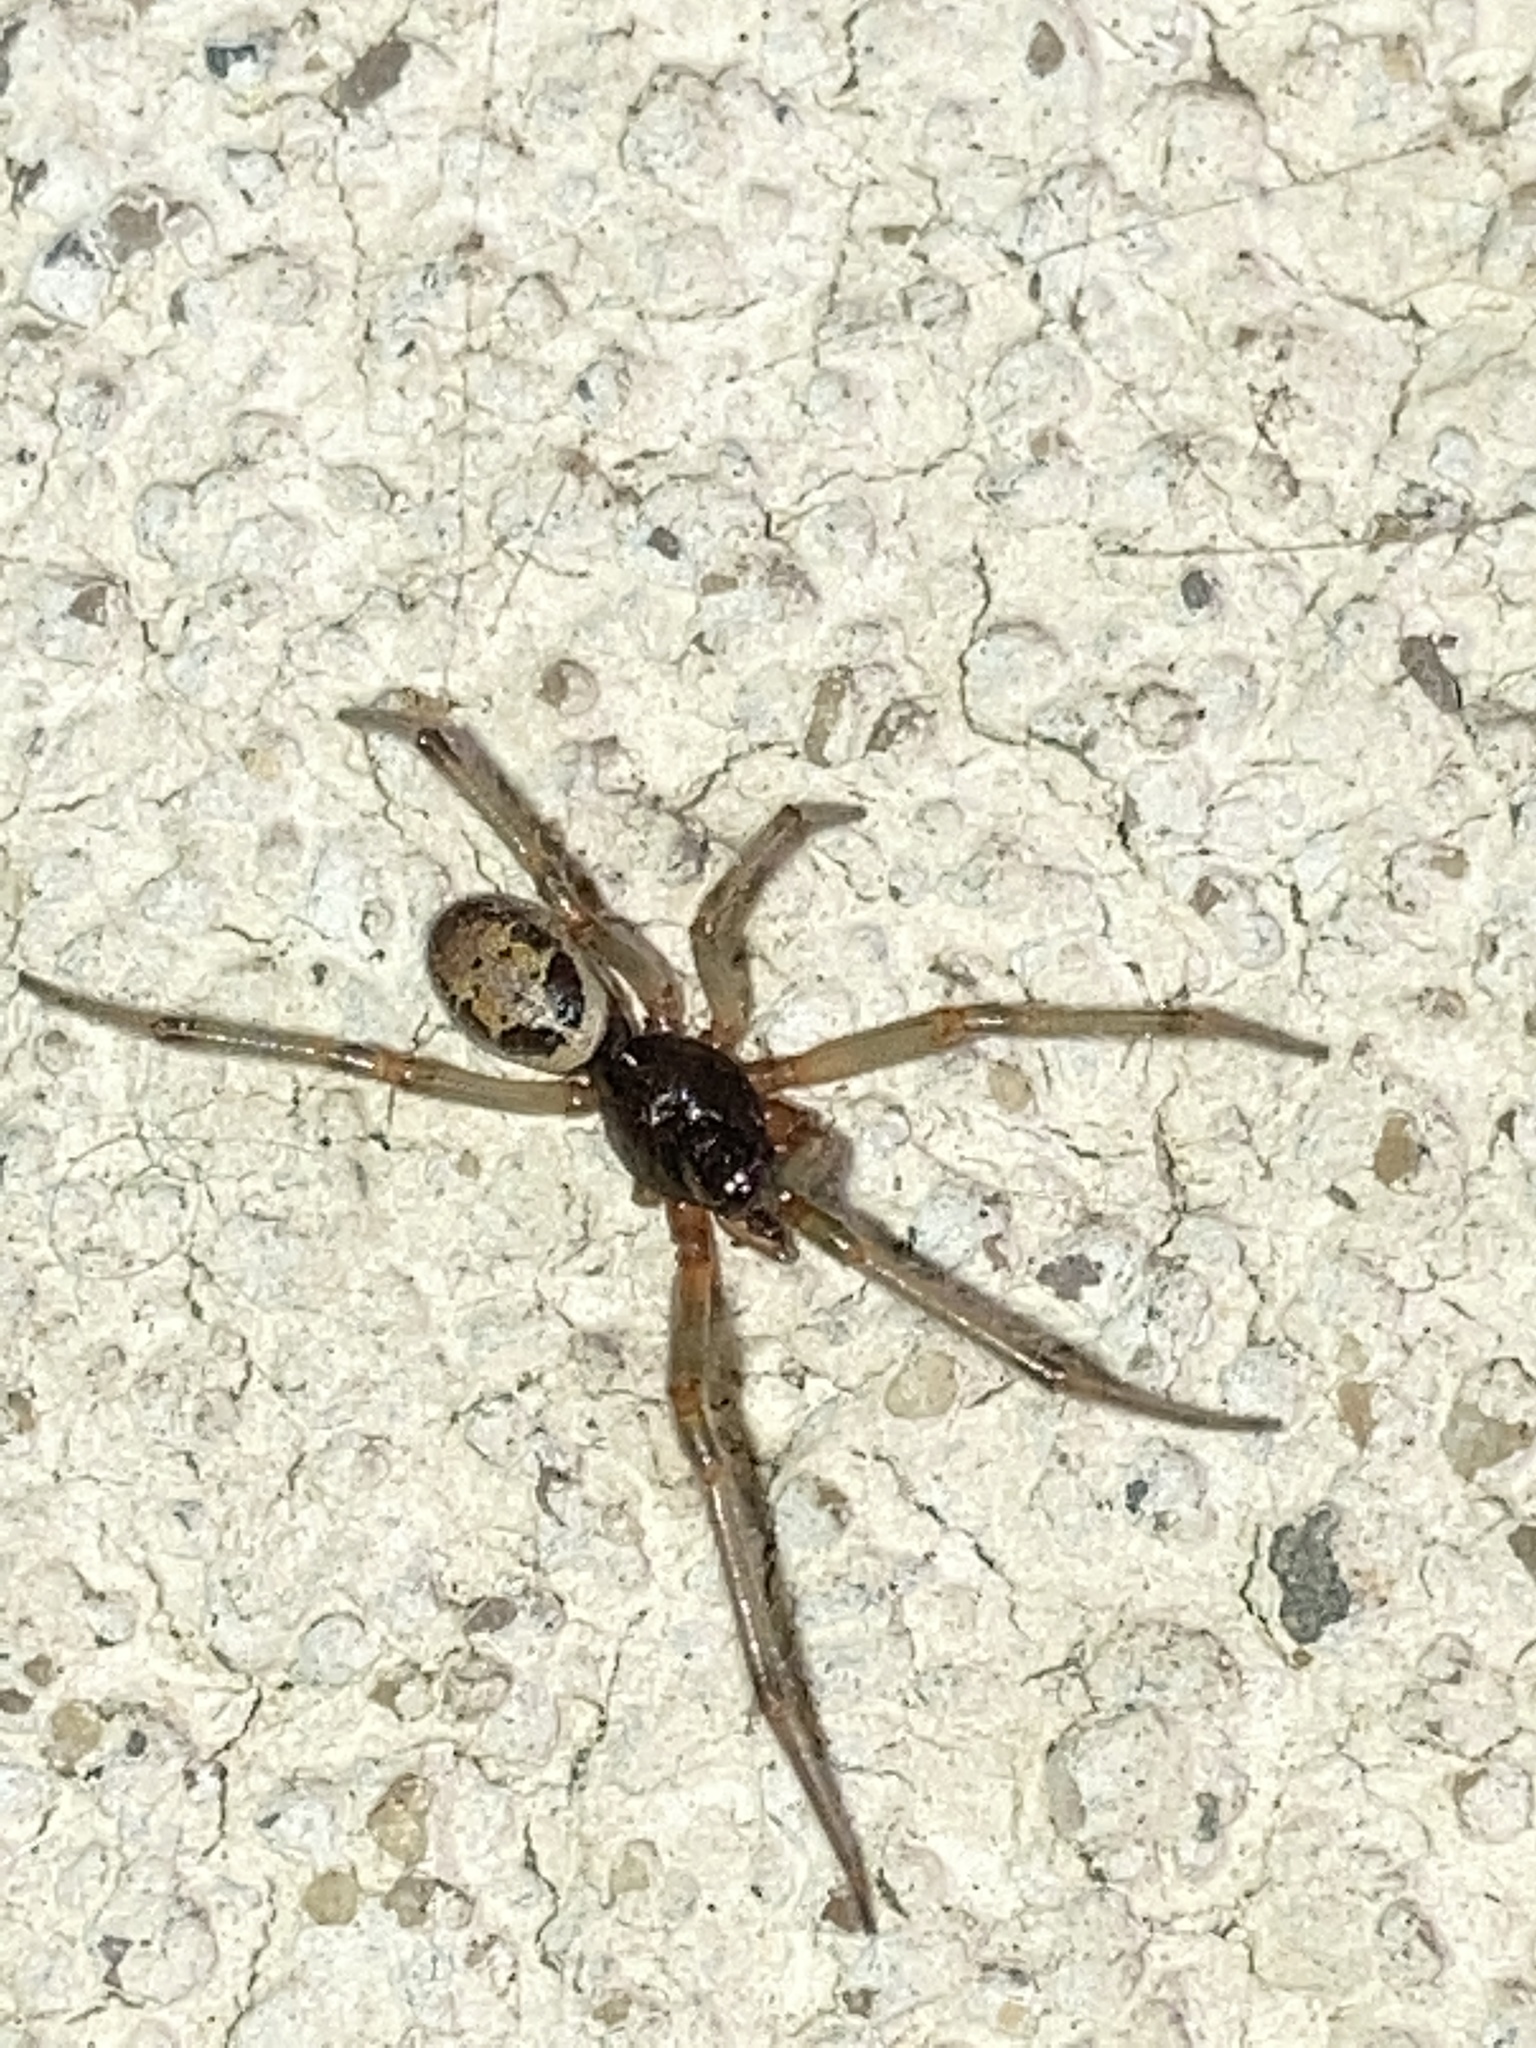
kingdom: Animalia
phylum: Arthropoda
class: Arachnida
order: Araneae
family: Theridiidae
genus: Steatoda
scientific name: Steatoda nobilis
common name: Cobweb weaver
